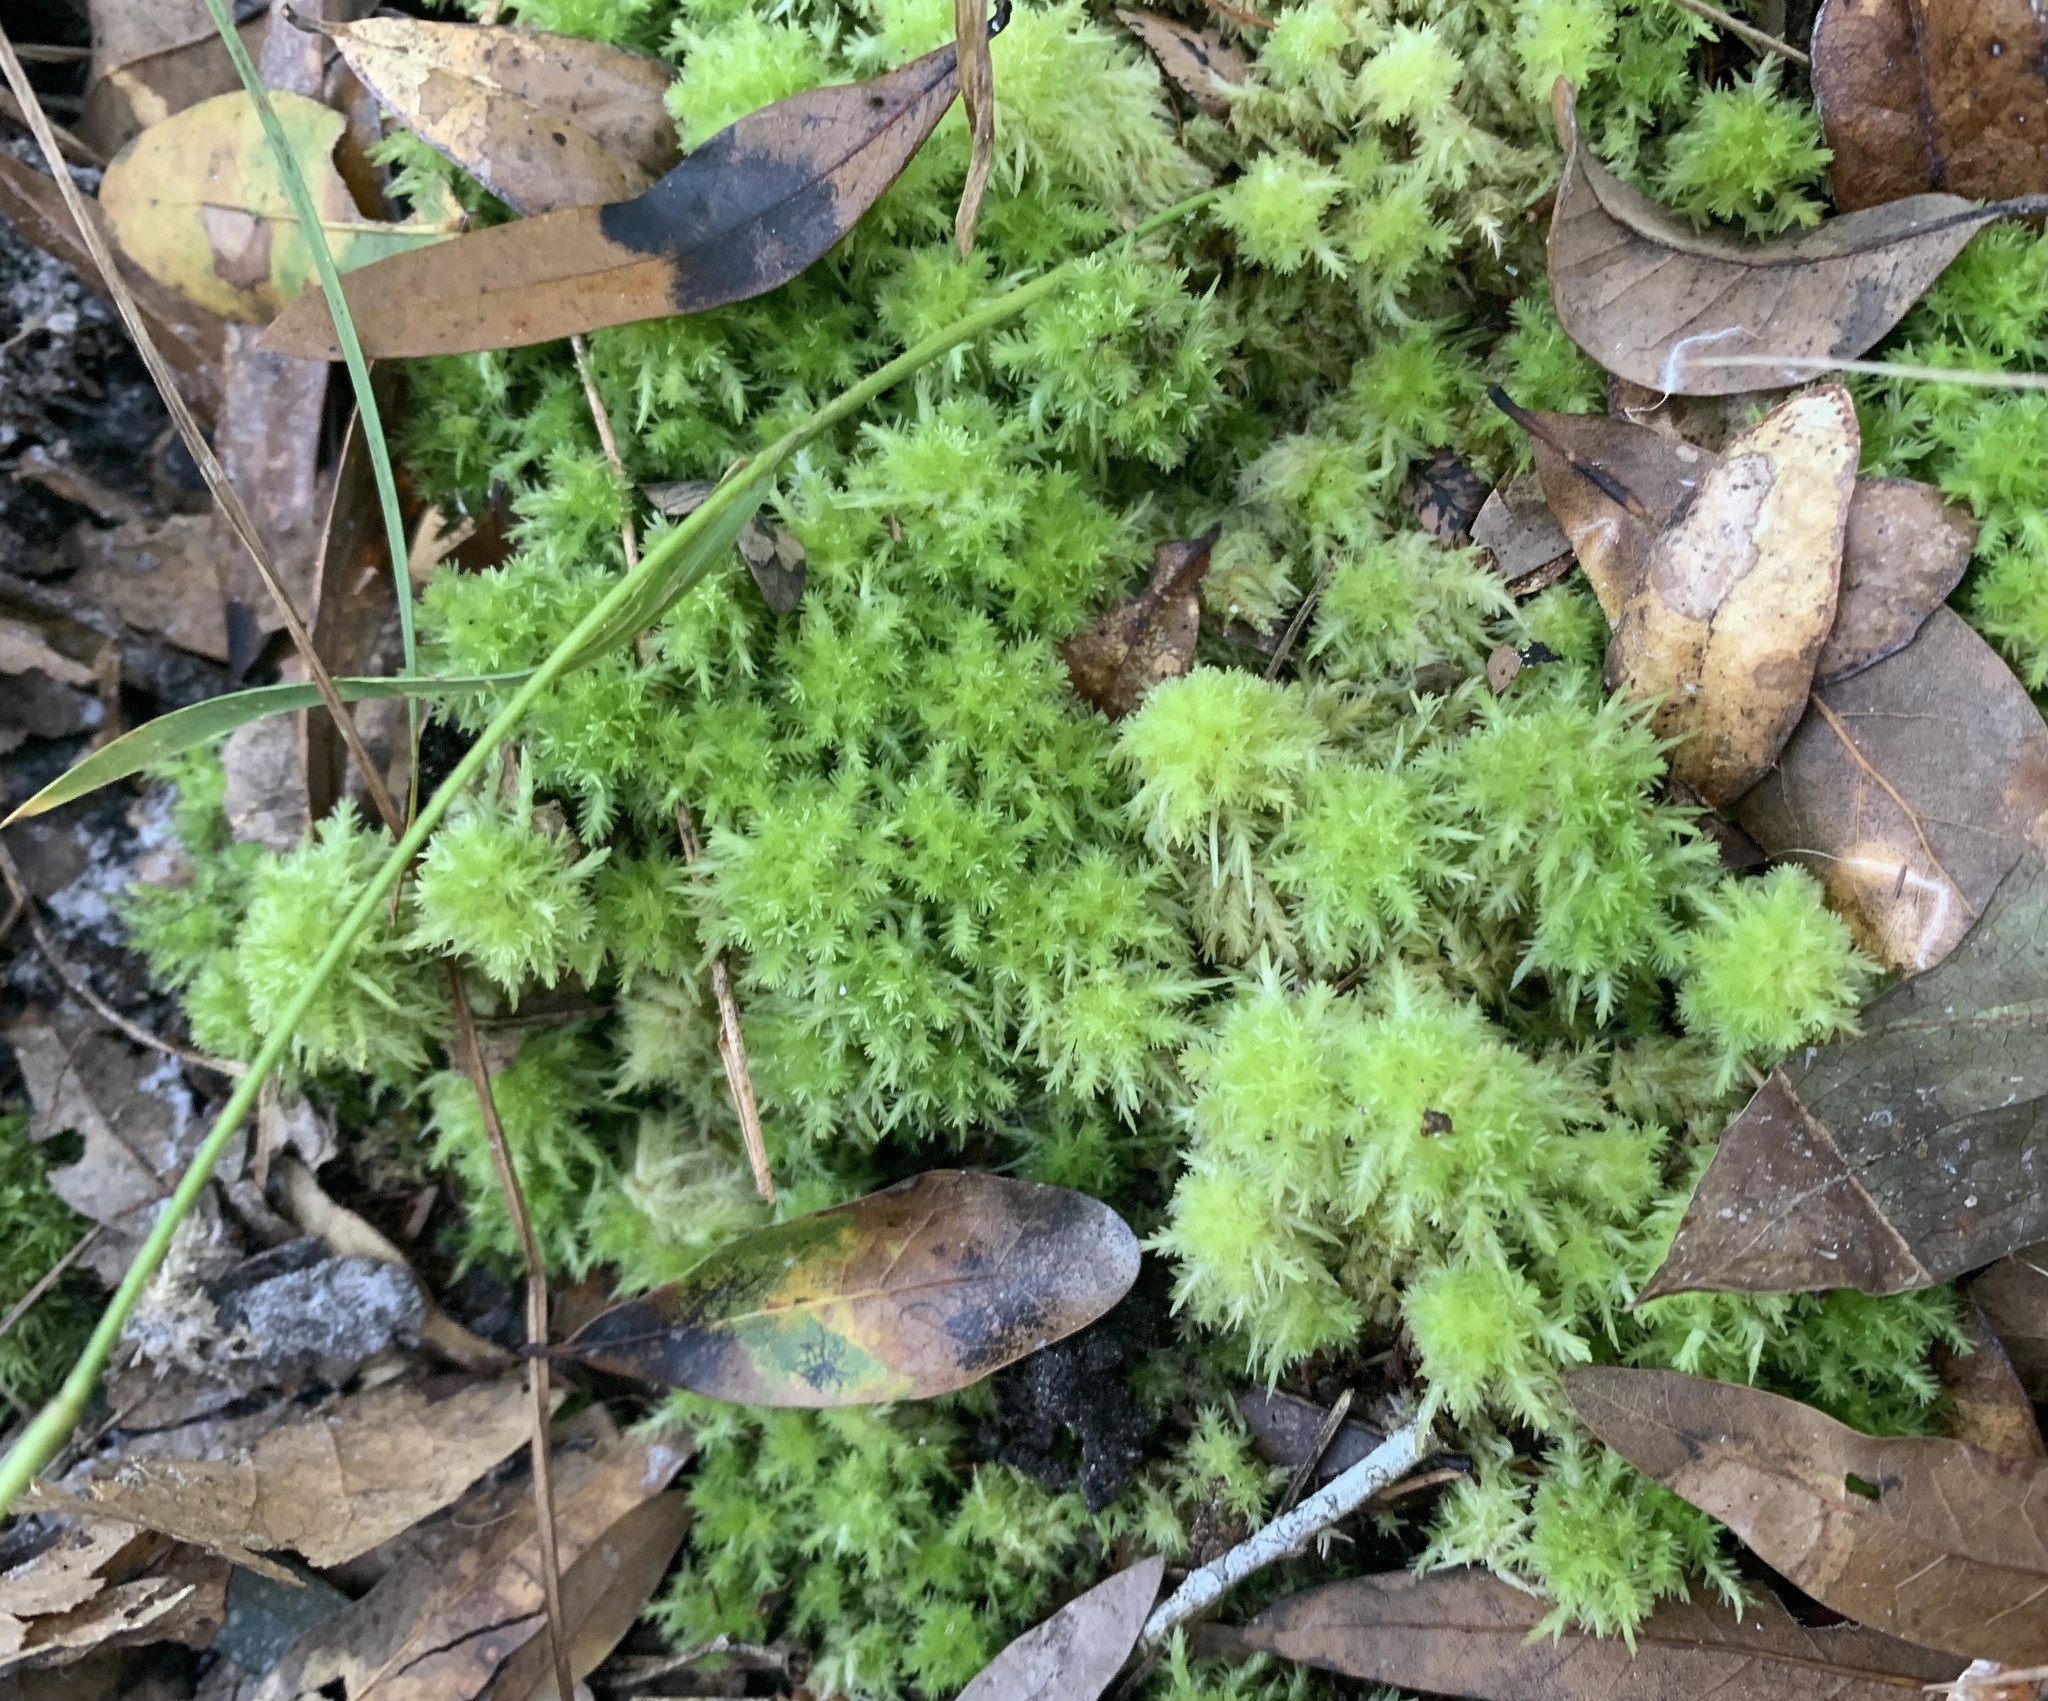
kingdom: Plantae
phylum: Bryophyta
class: Sphagnopsida
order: Sphagnales
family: Sphagnaceae
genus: Sphagnum
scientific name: Sphagnum strictum
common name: Pale bog-moss
